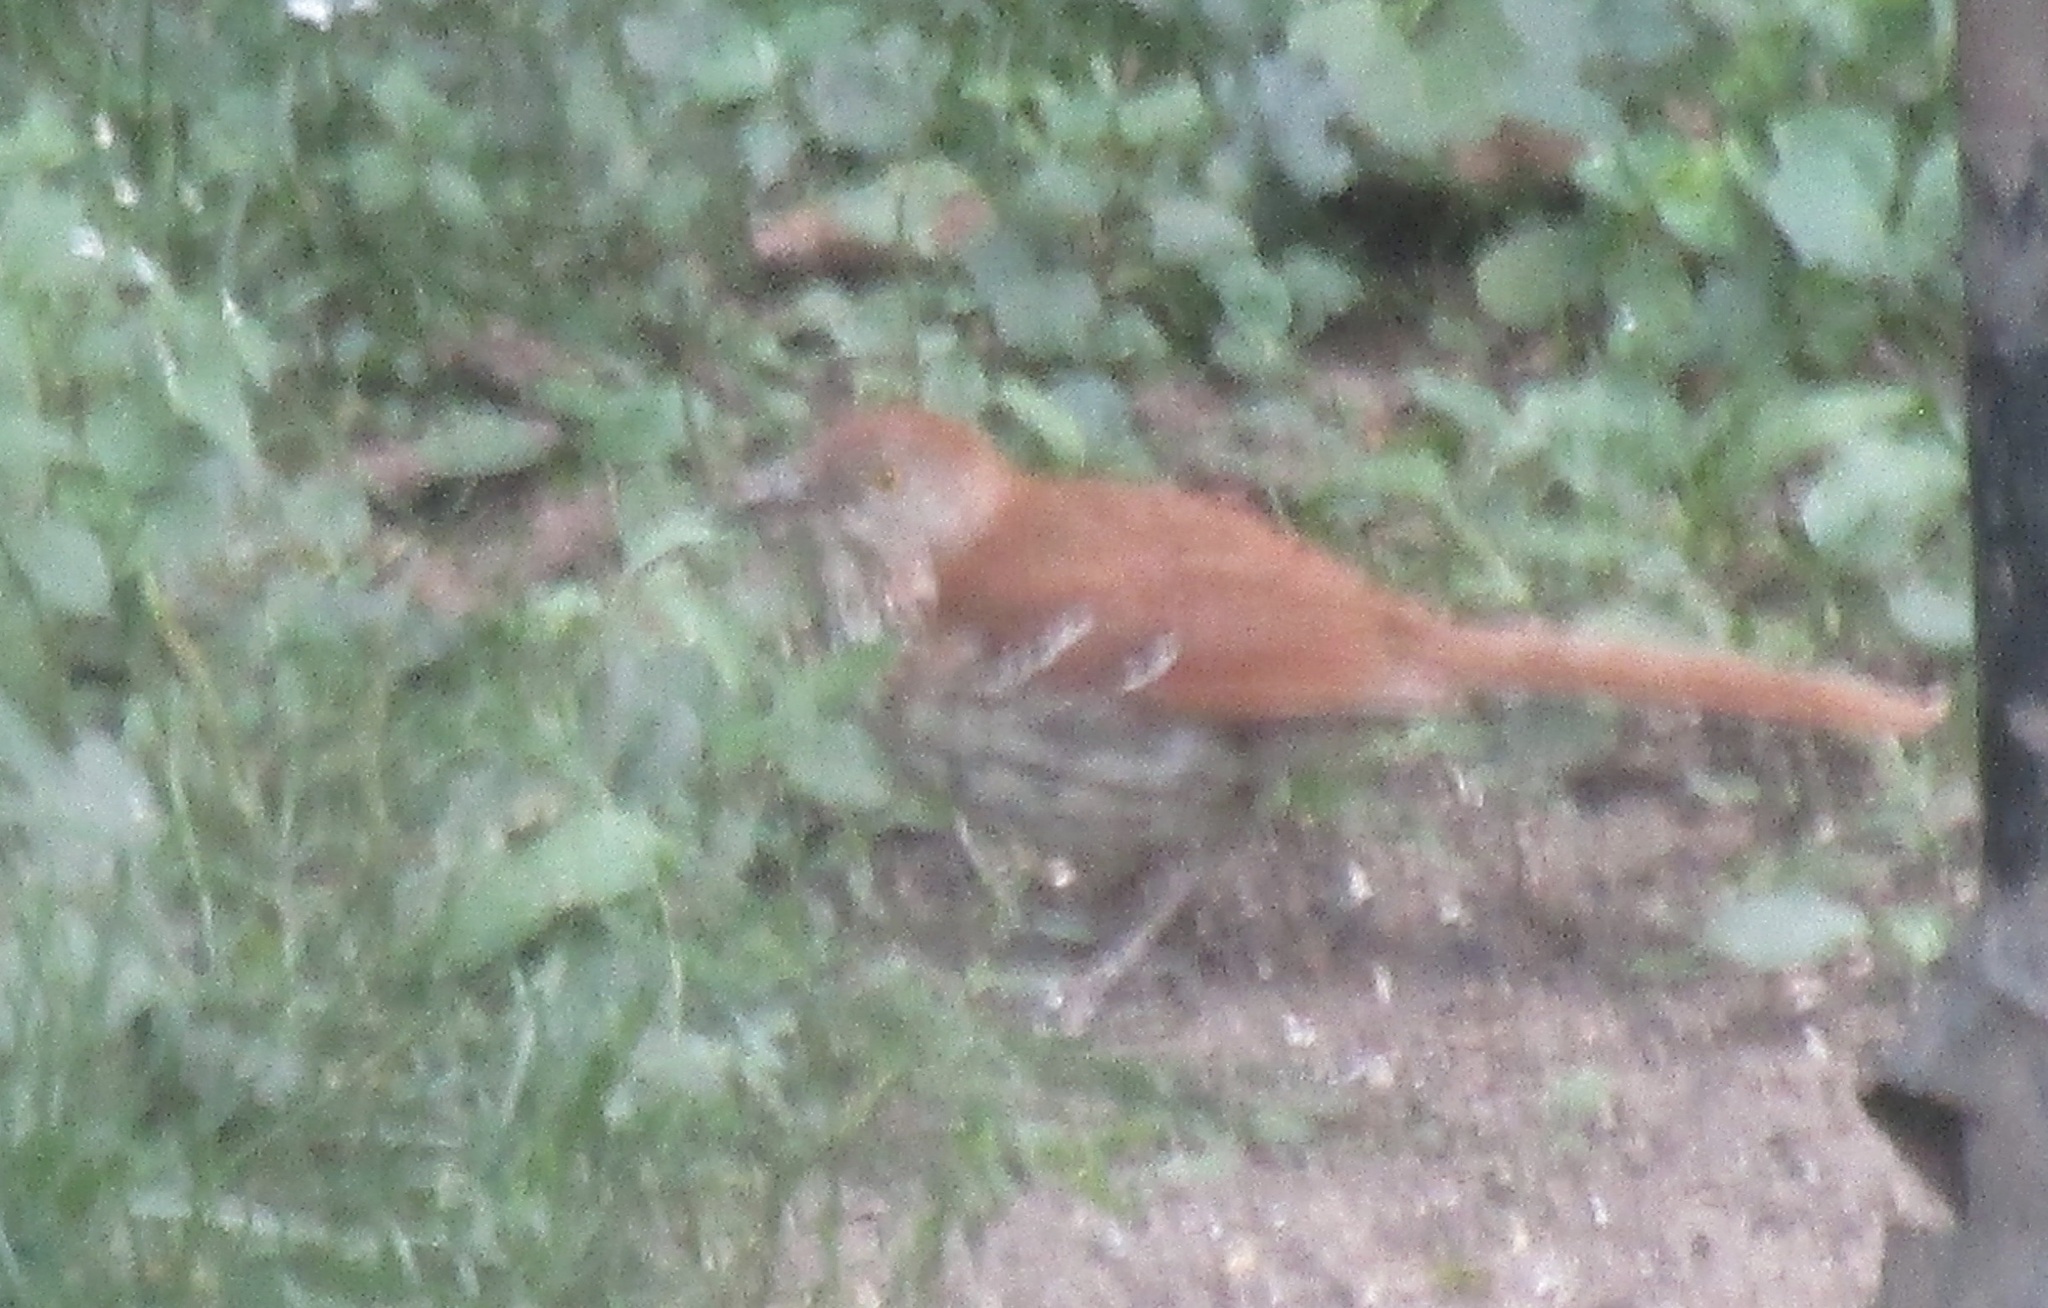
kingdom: Animalia
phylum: Chordata
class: Aves
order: Passeriformes
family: Mimidae
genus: Toxostoma
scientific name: Toxostoma rufum
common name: Brown thrasher
